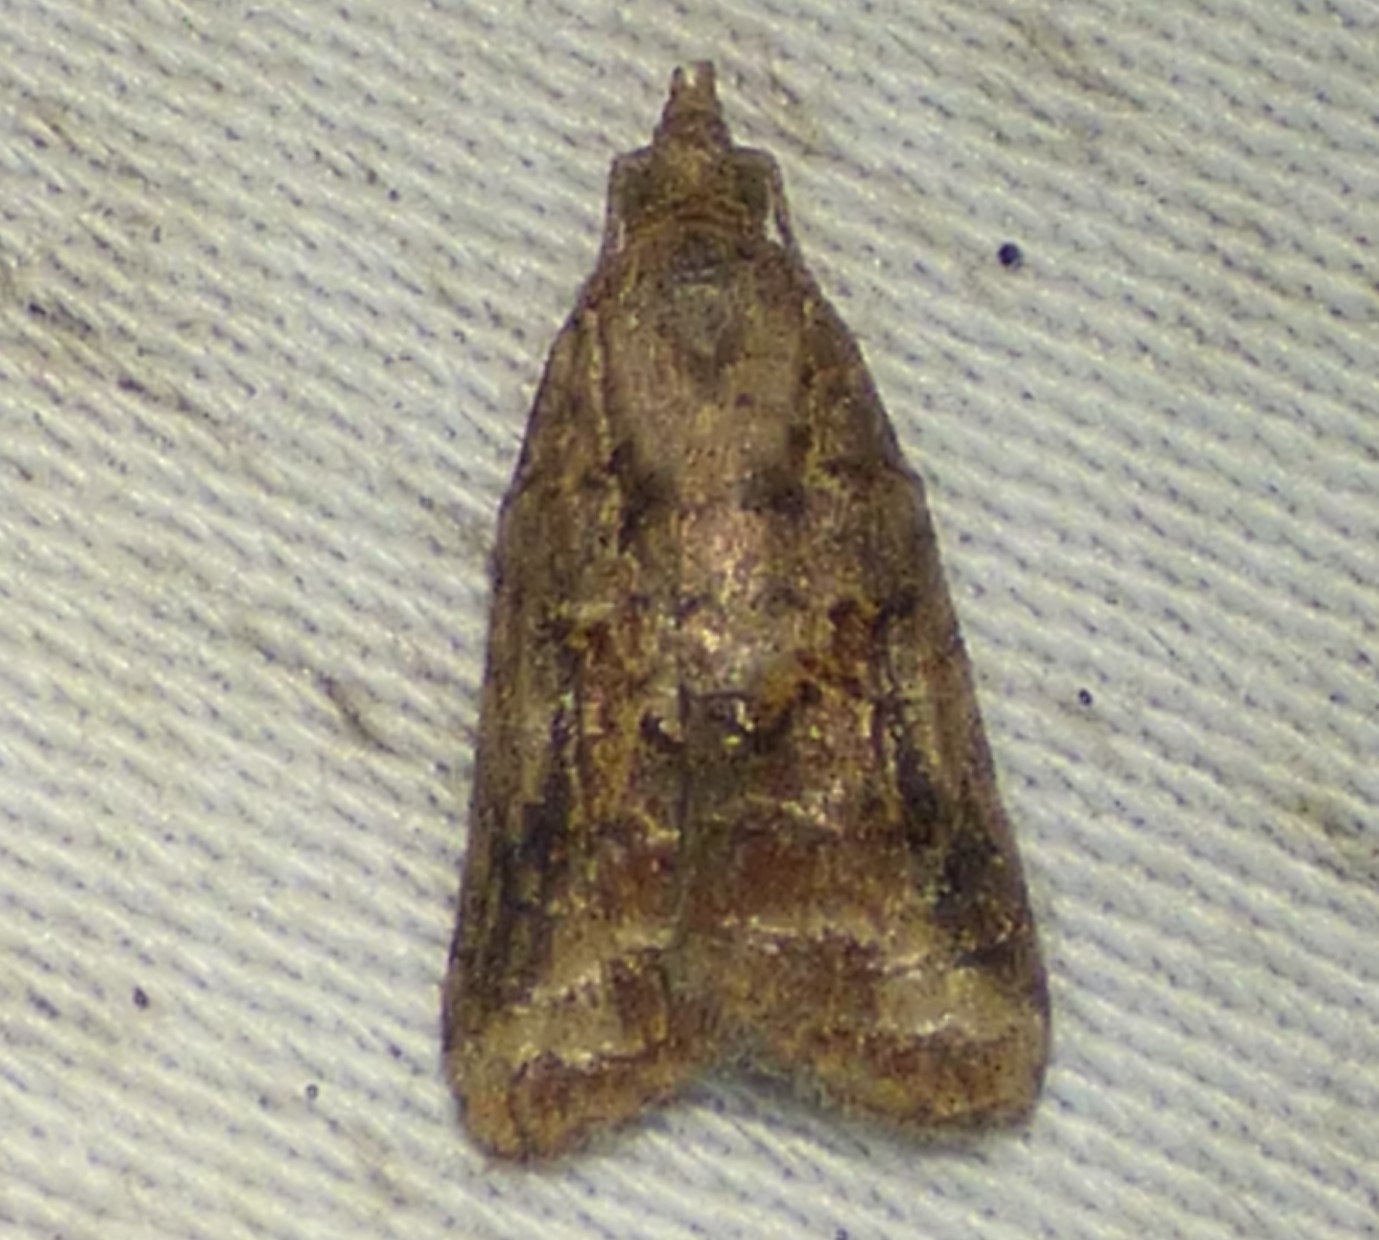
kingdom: Animalia
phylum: Arthropoda
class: Insecta
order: Lepidoptera
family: Tortricidae
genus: Platynota
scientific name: Platynota idaeusalis
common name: Tufted apple bud moth
